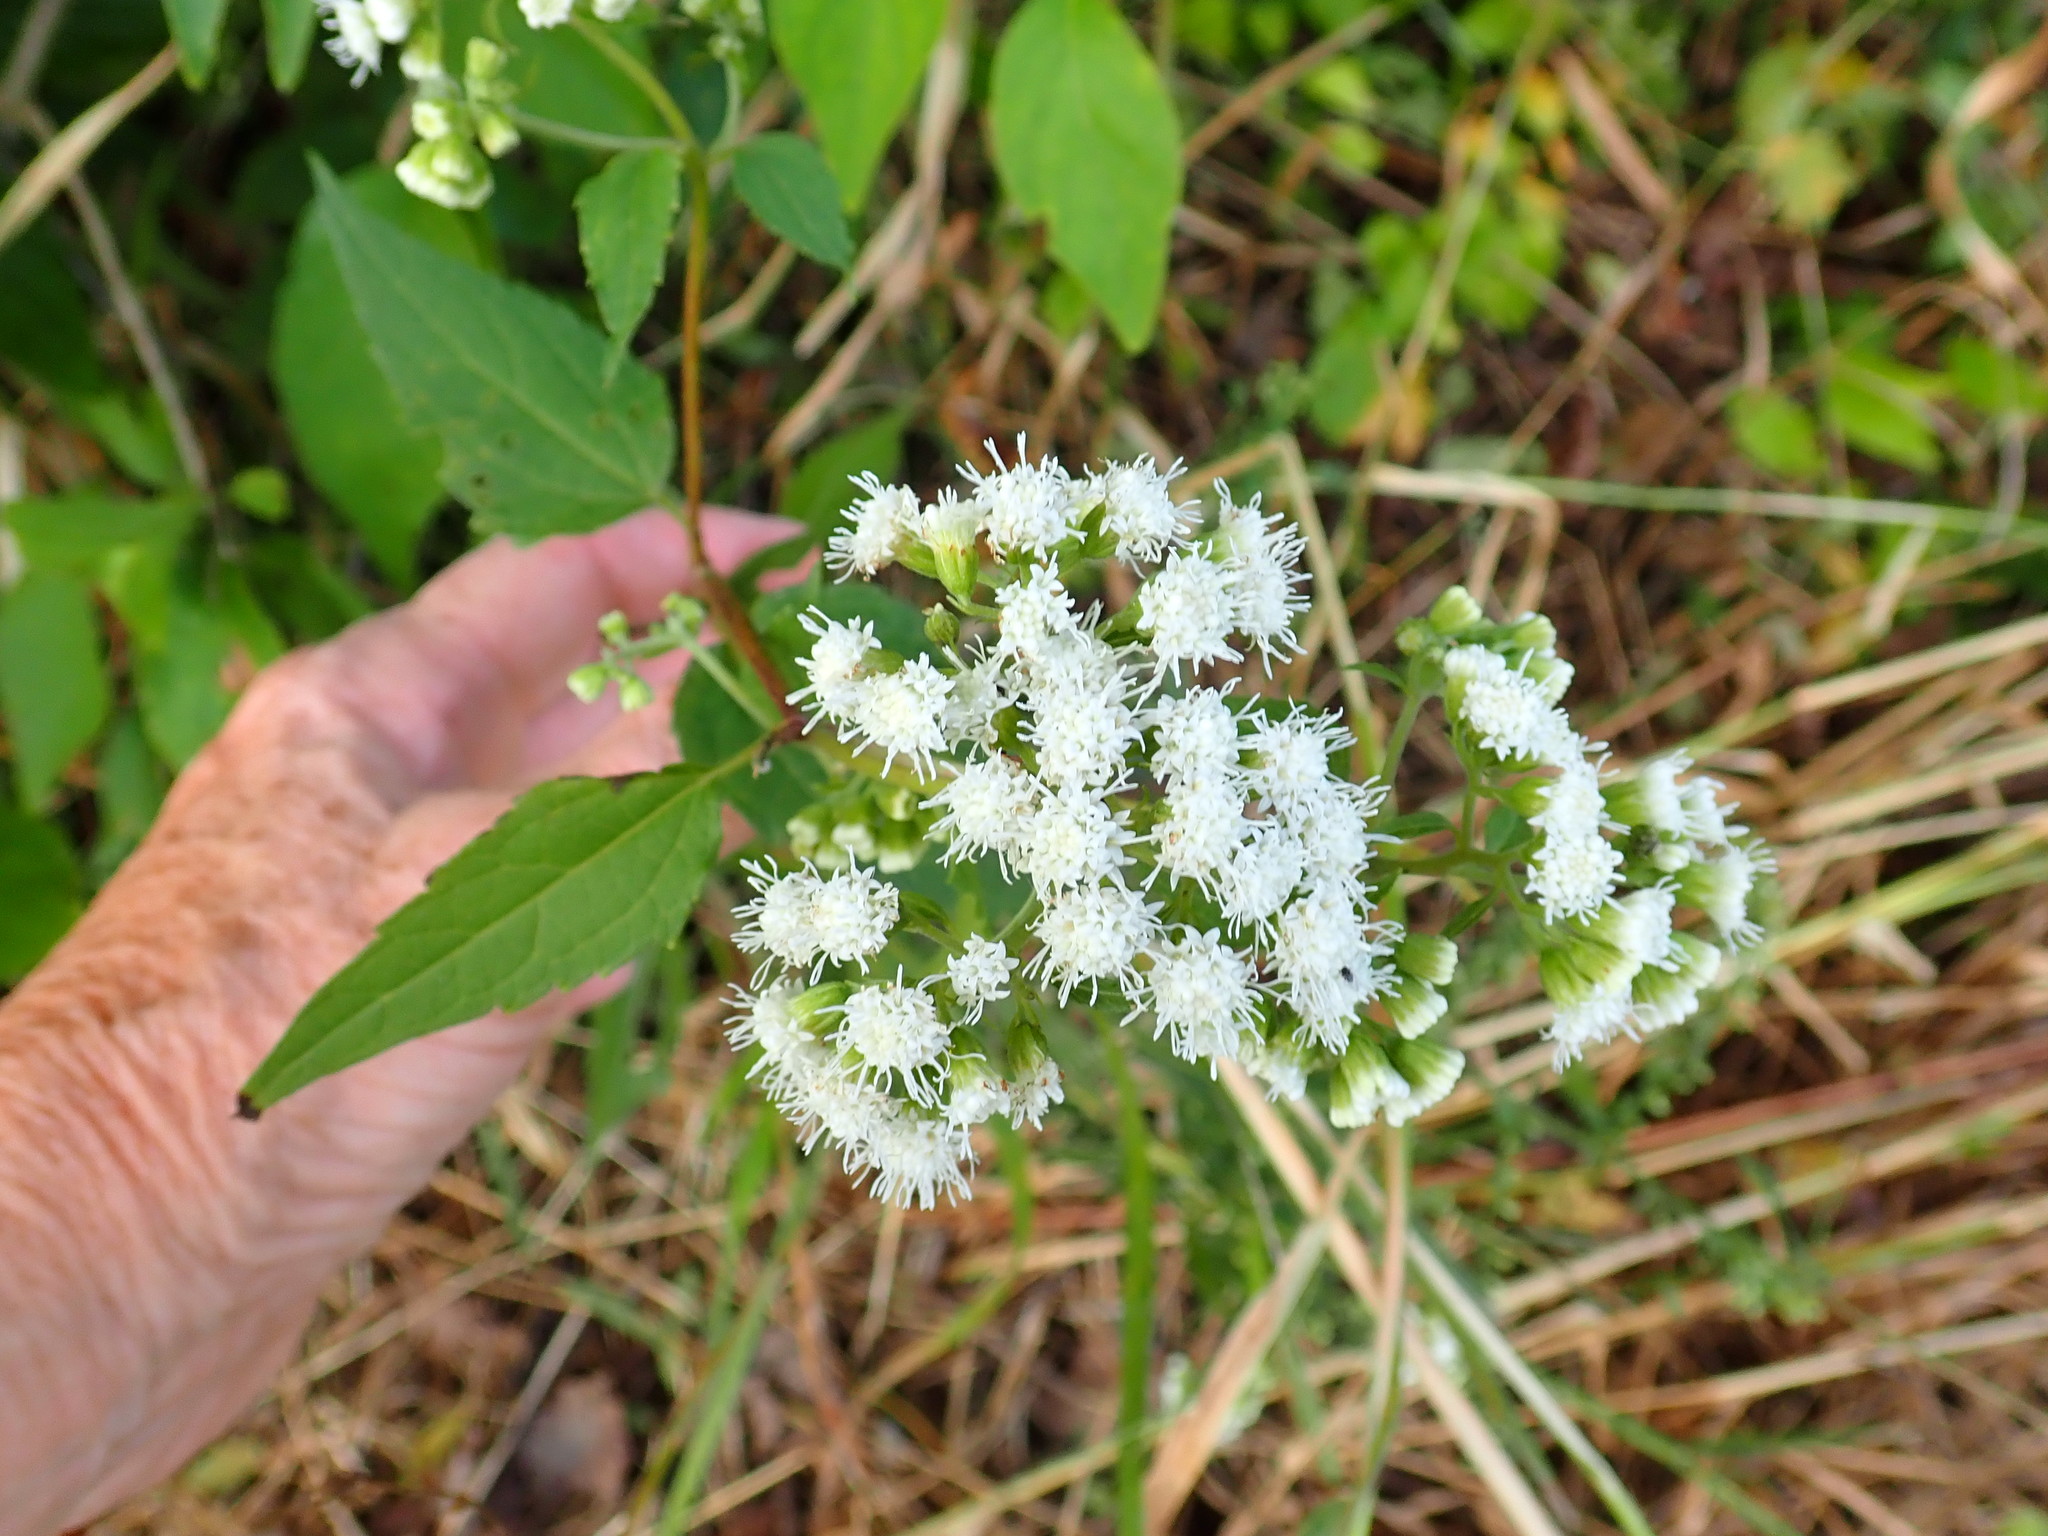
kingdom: Plantae
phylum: Tracheophyta
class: Magnoliopsida
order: Asterales
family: Asteraceae
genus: Ageratina
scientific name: Ageratina altissima
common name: White snakeroot
